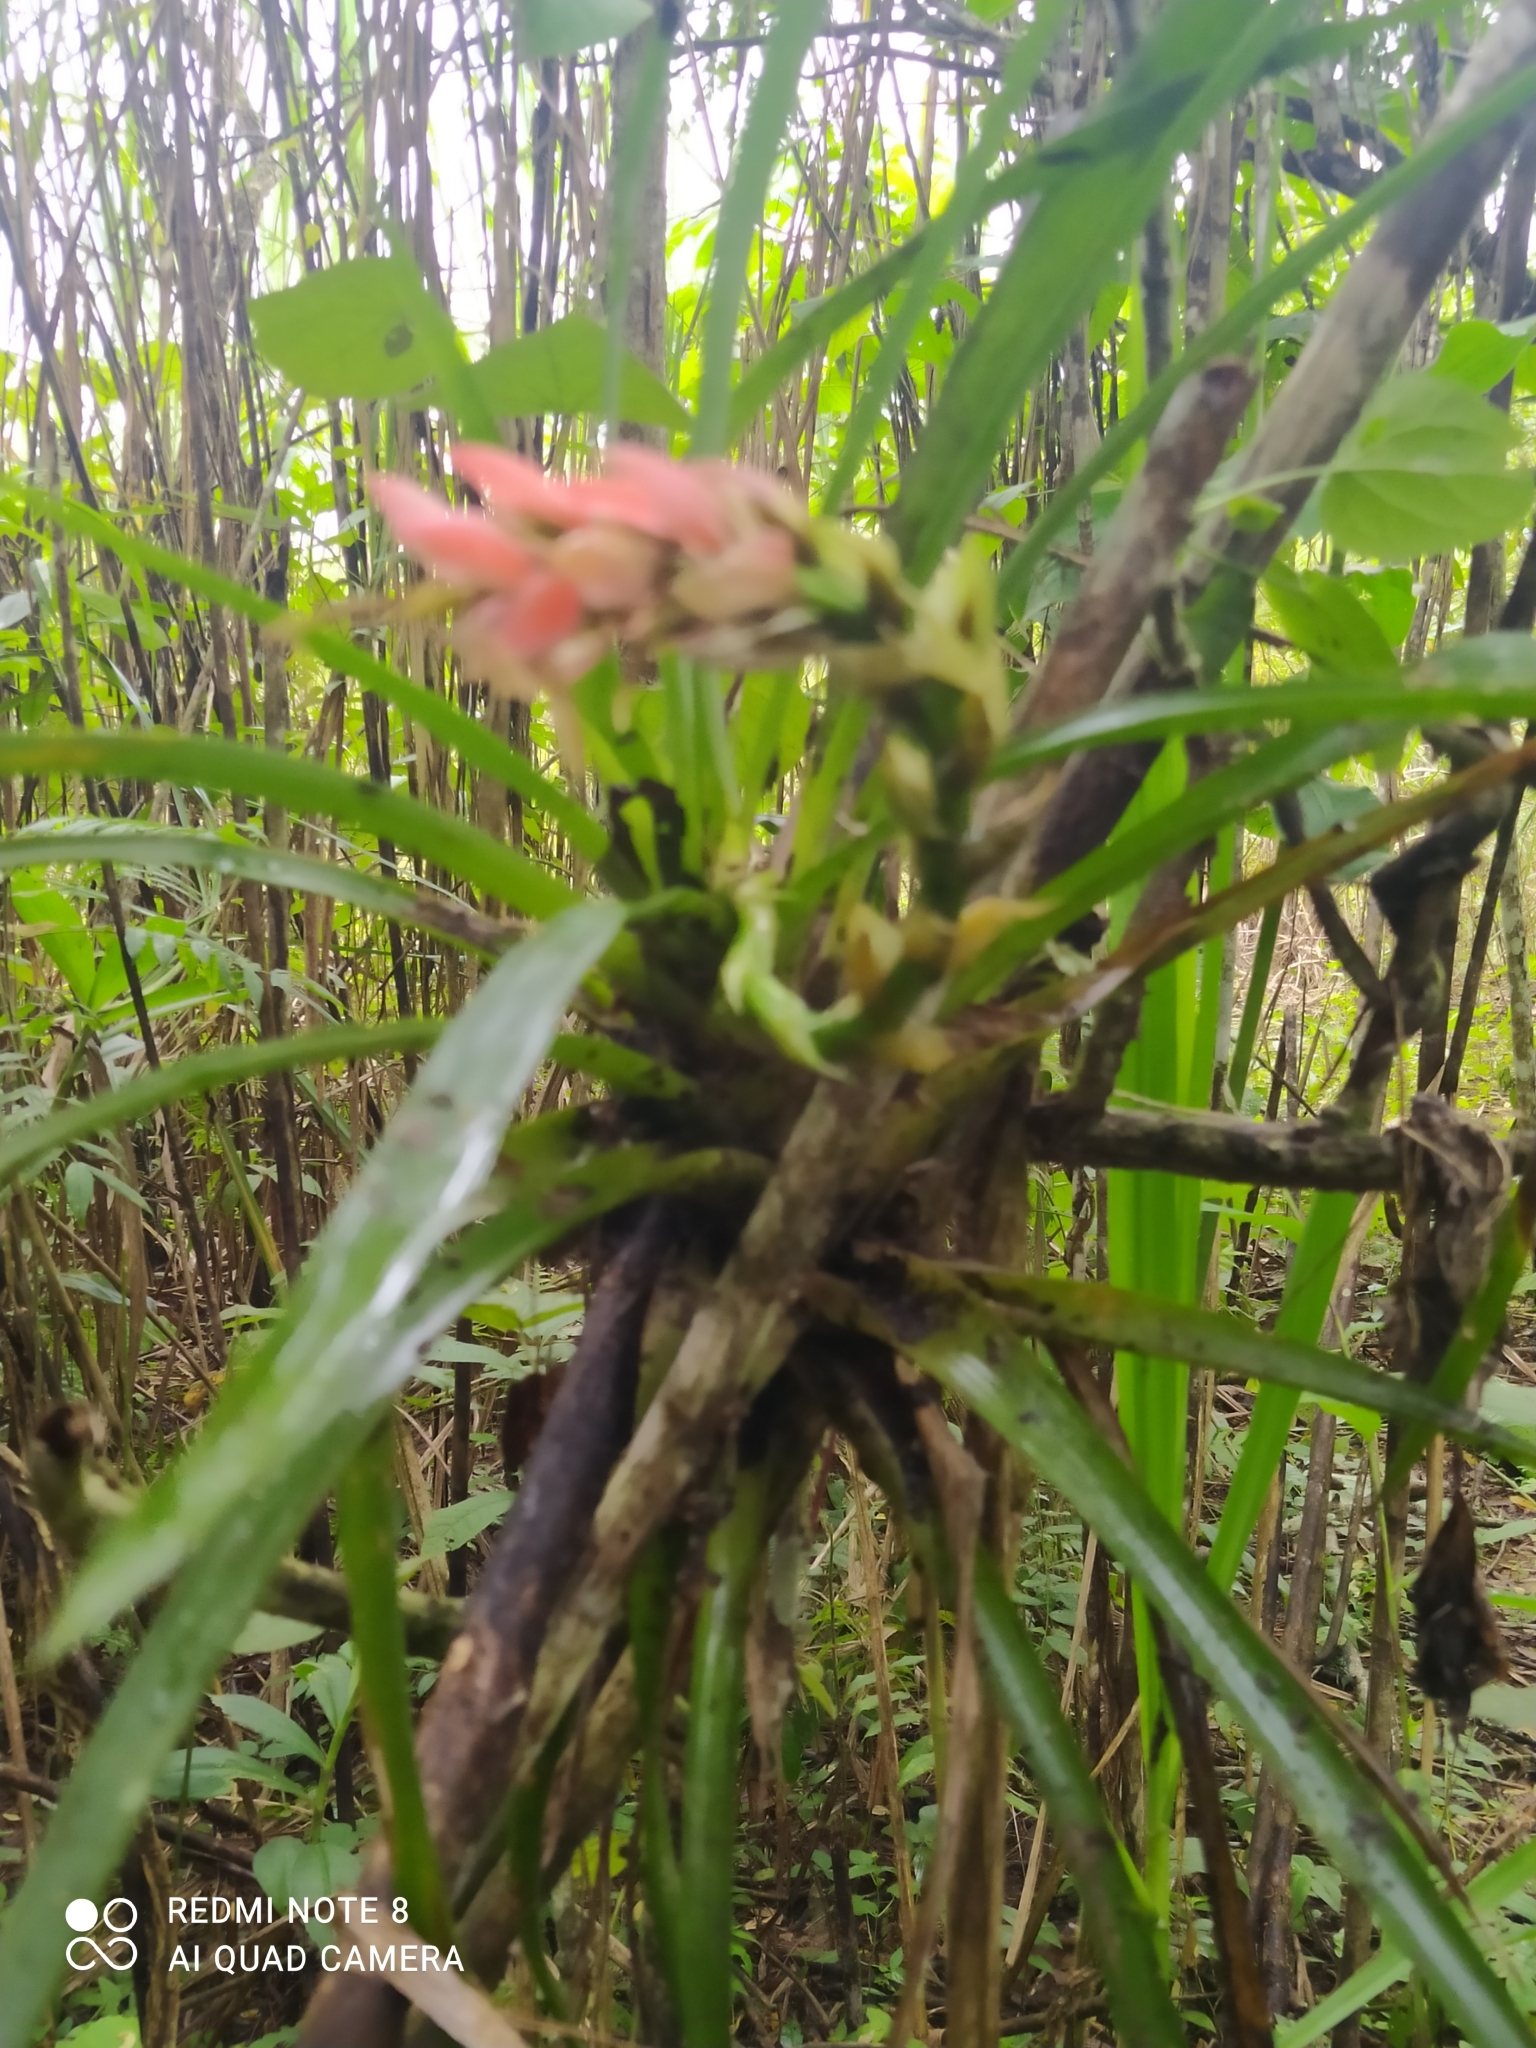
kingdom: Plantae
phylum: Tracheophyta
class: Liliopsida
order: Poales
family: Bromeliaceae
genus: Guzmania
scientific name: Guzmania monostachia
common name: West indian tufted airplant
